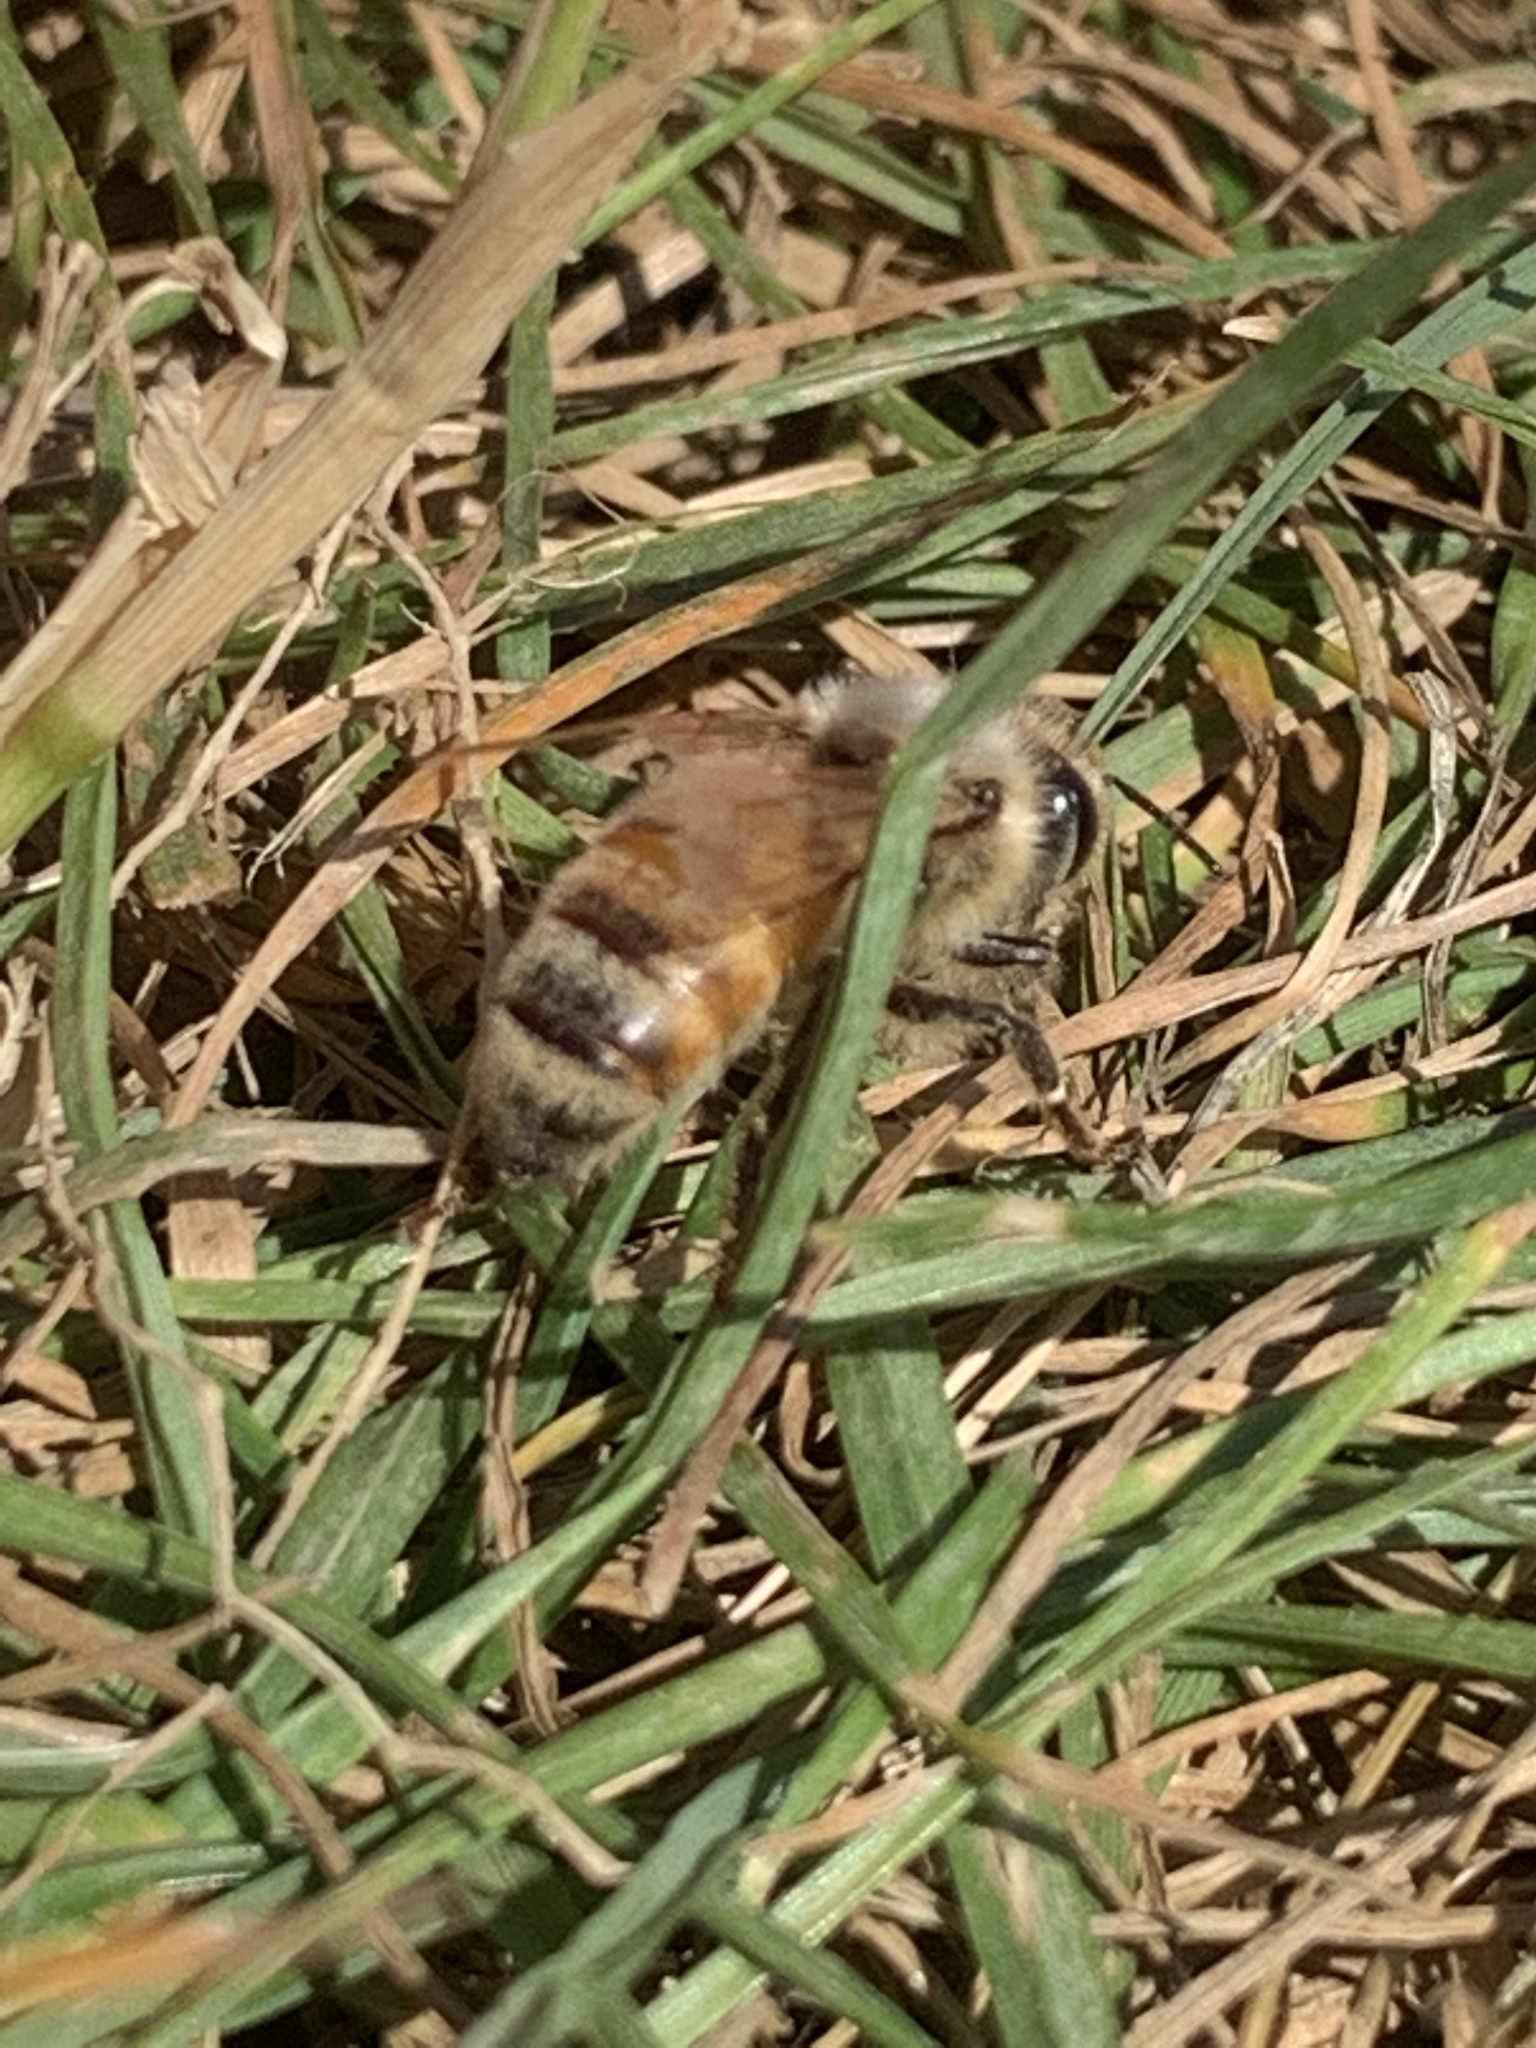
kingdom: Animalia
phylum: Arthropoda
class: Insecta
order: Hymenoptera
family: Apidae
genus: Apis
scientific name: Apis mellifera
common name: Honey bee
